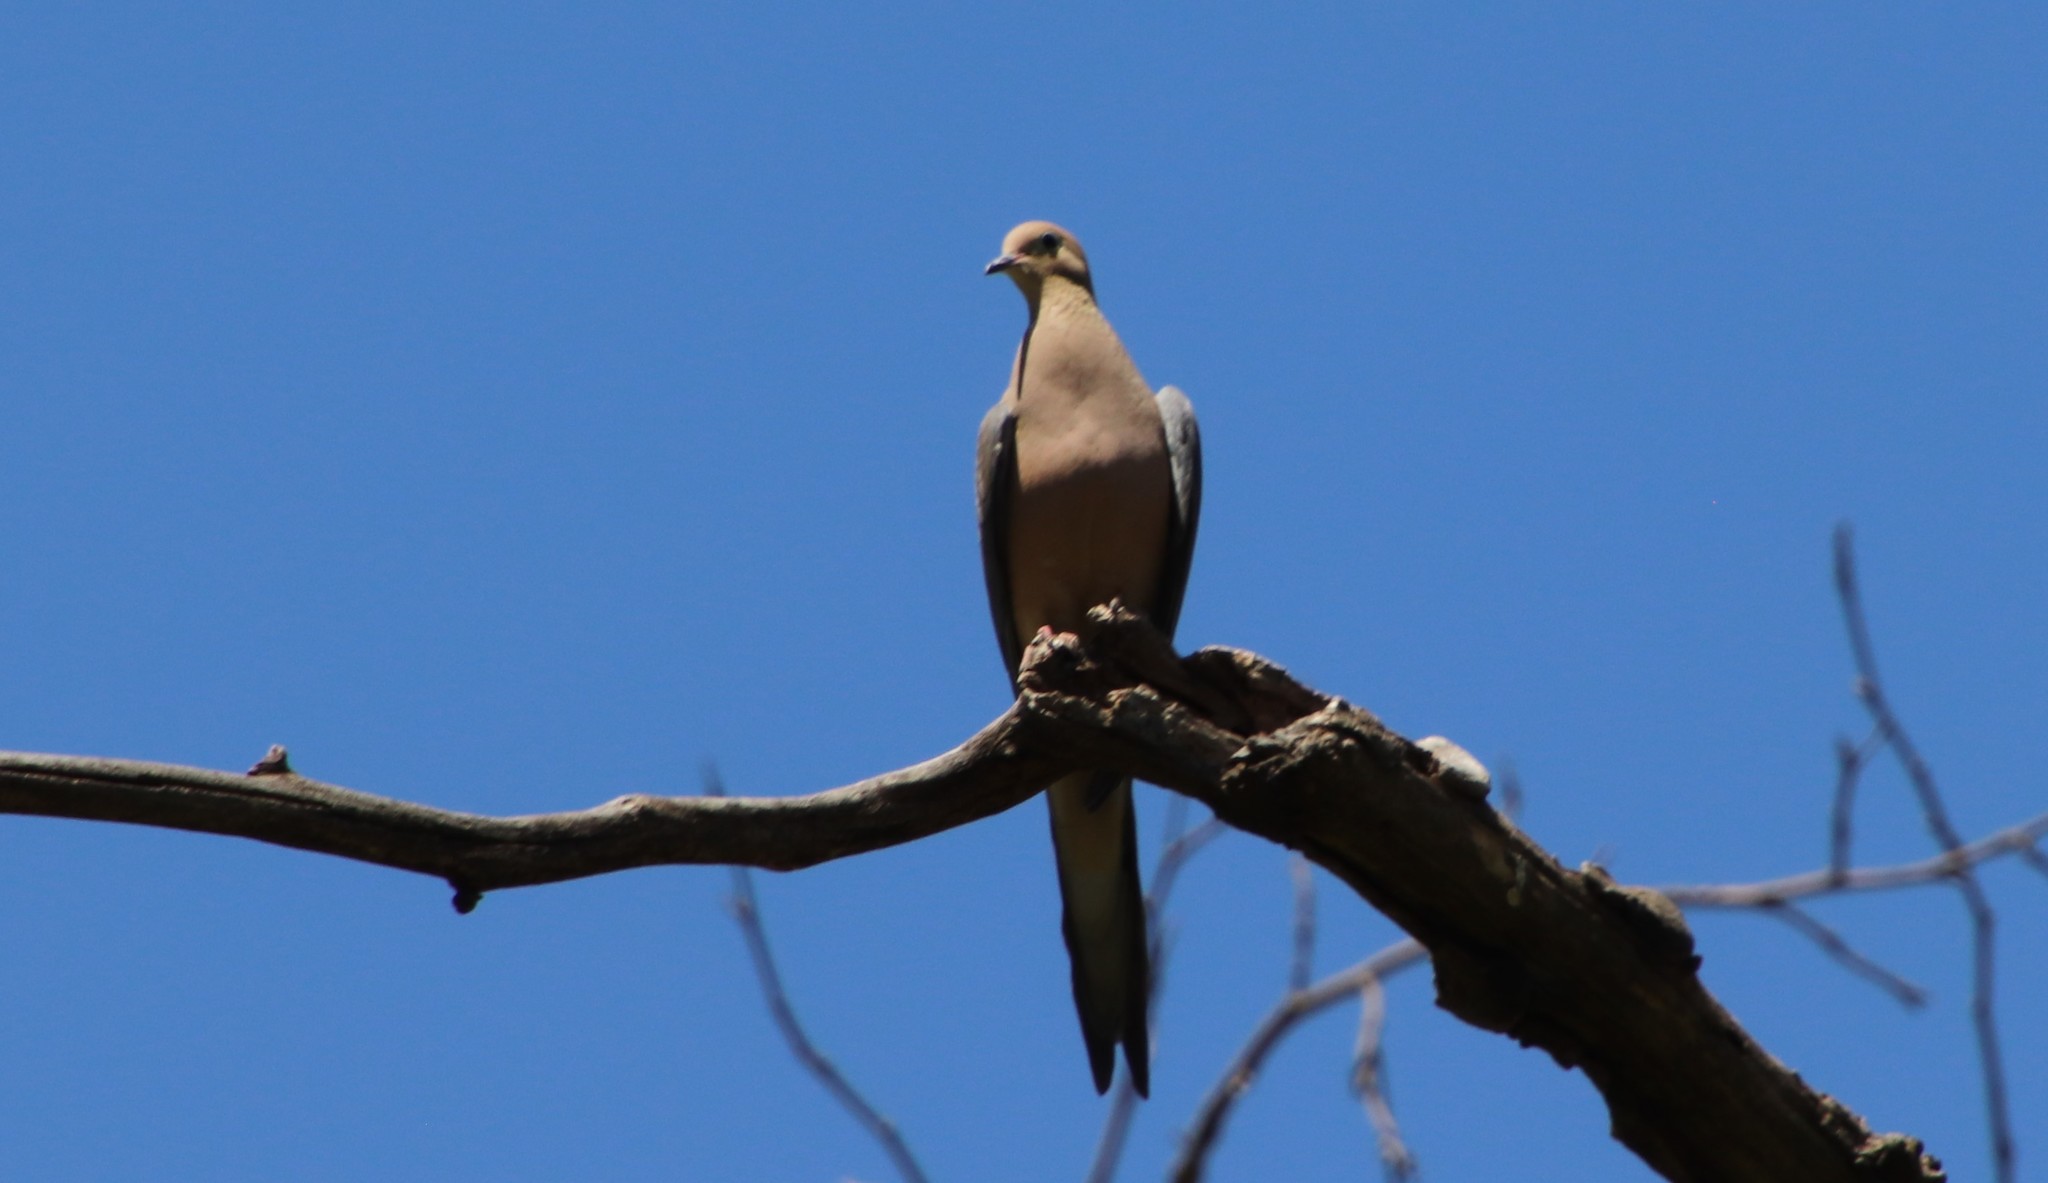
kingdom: Animalia
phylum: Chordata
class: Aves
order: Columbiformes
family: Columbidae
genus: Zenaida
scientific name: Zenaida macroura
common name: Mourning dove
